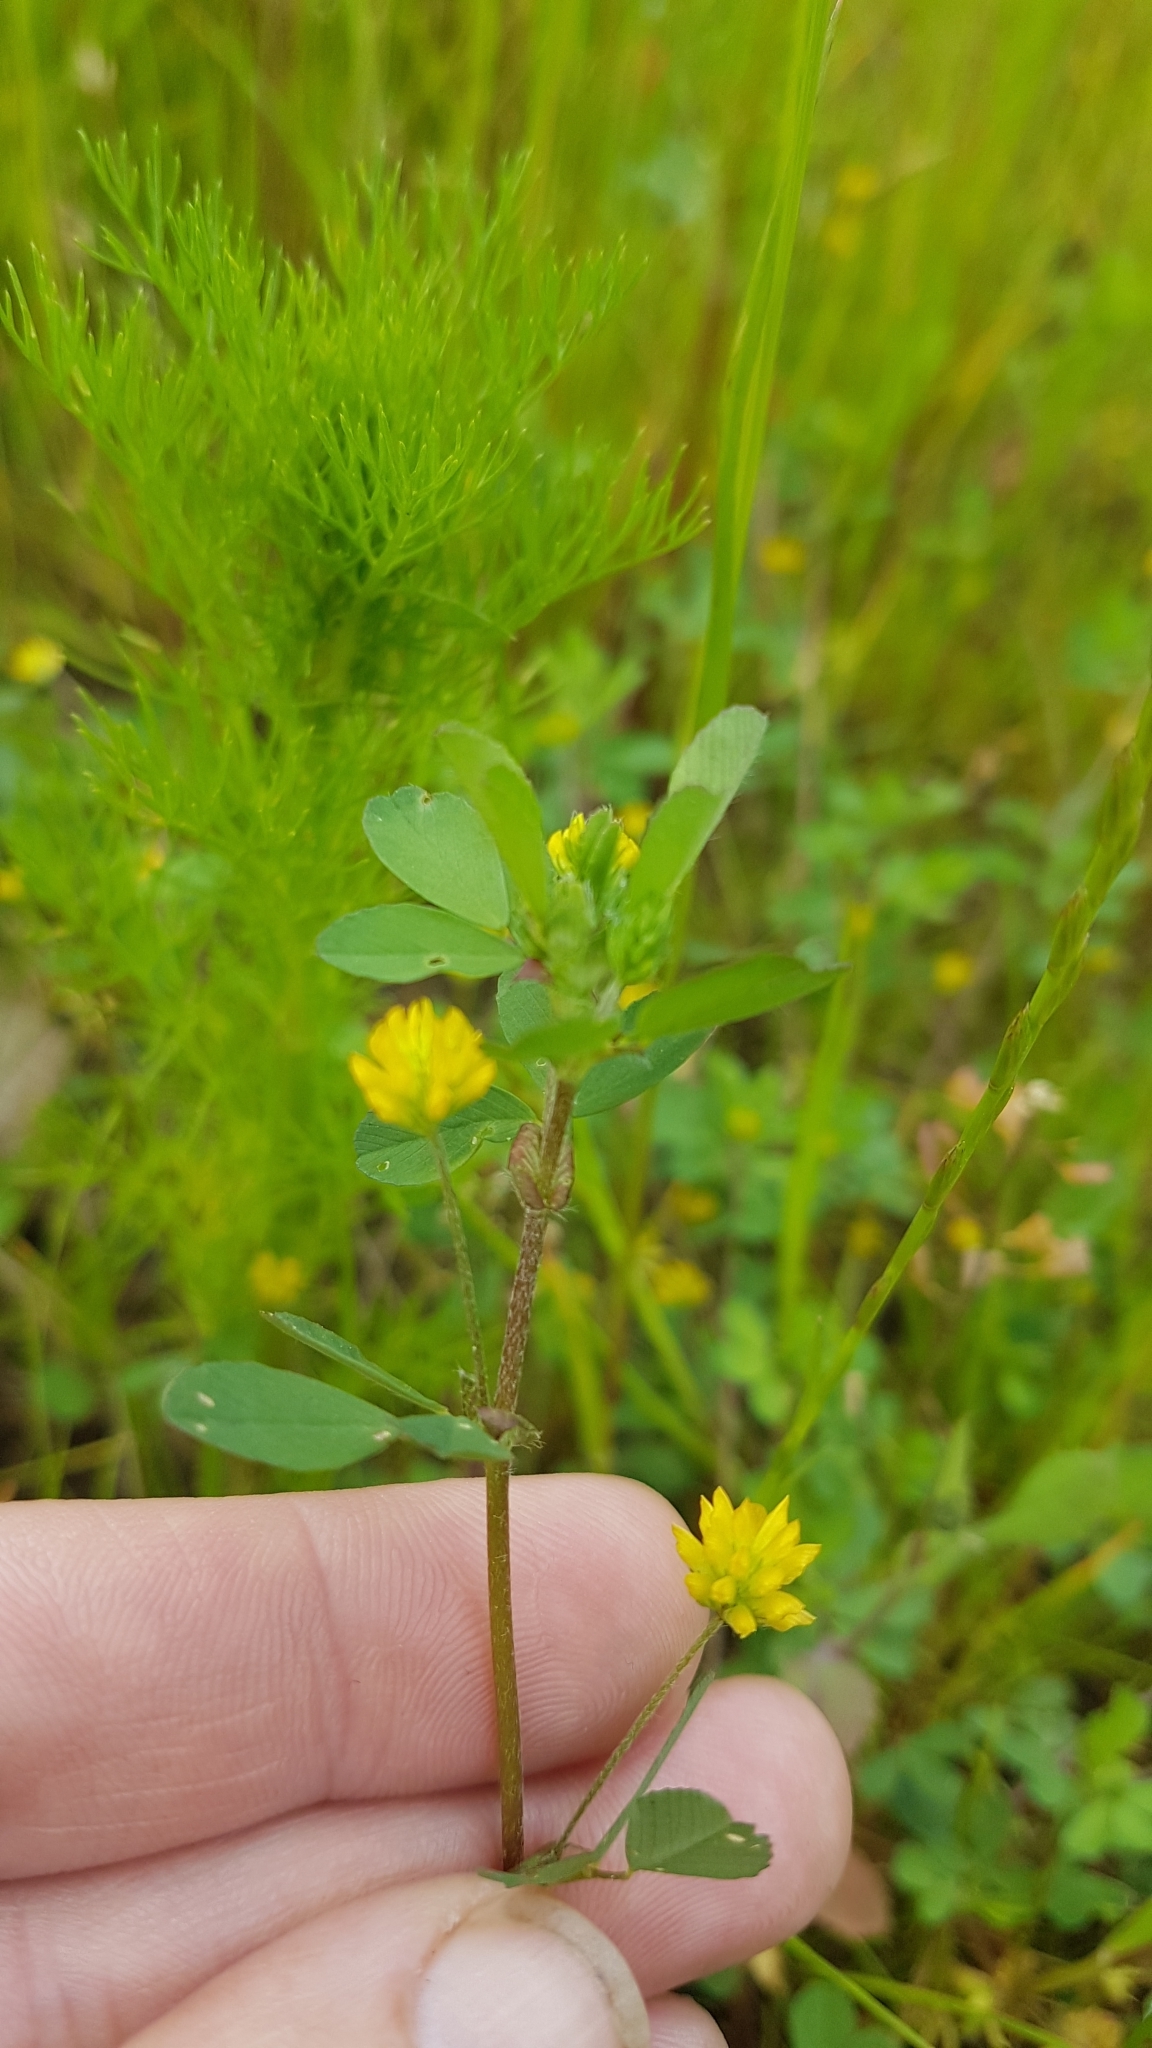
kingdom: Plantae
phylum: Tracheophyta
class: Magnoliopsida
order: Fabales
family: Fabaceae
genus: Trifolium
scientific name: Trifolium dubium
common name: Suckling clover
